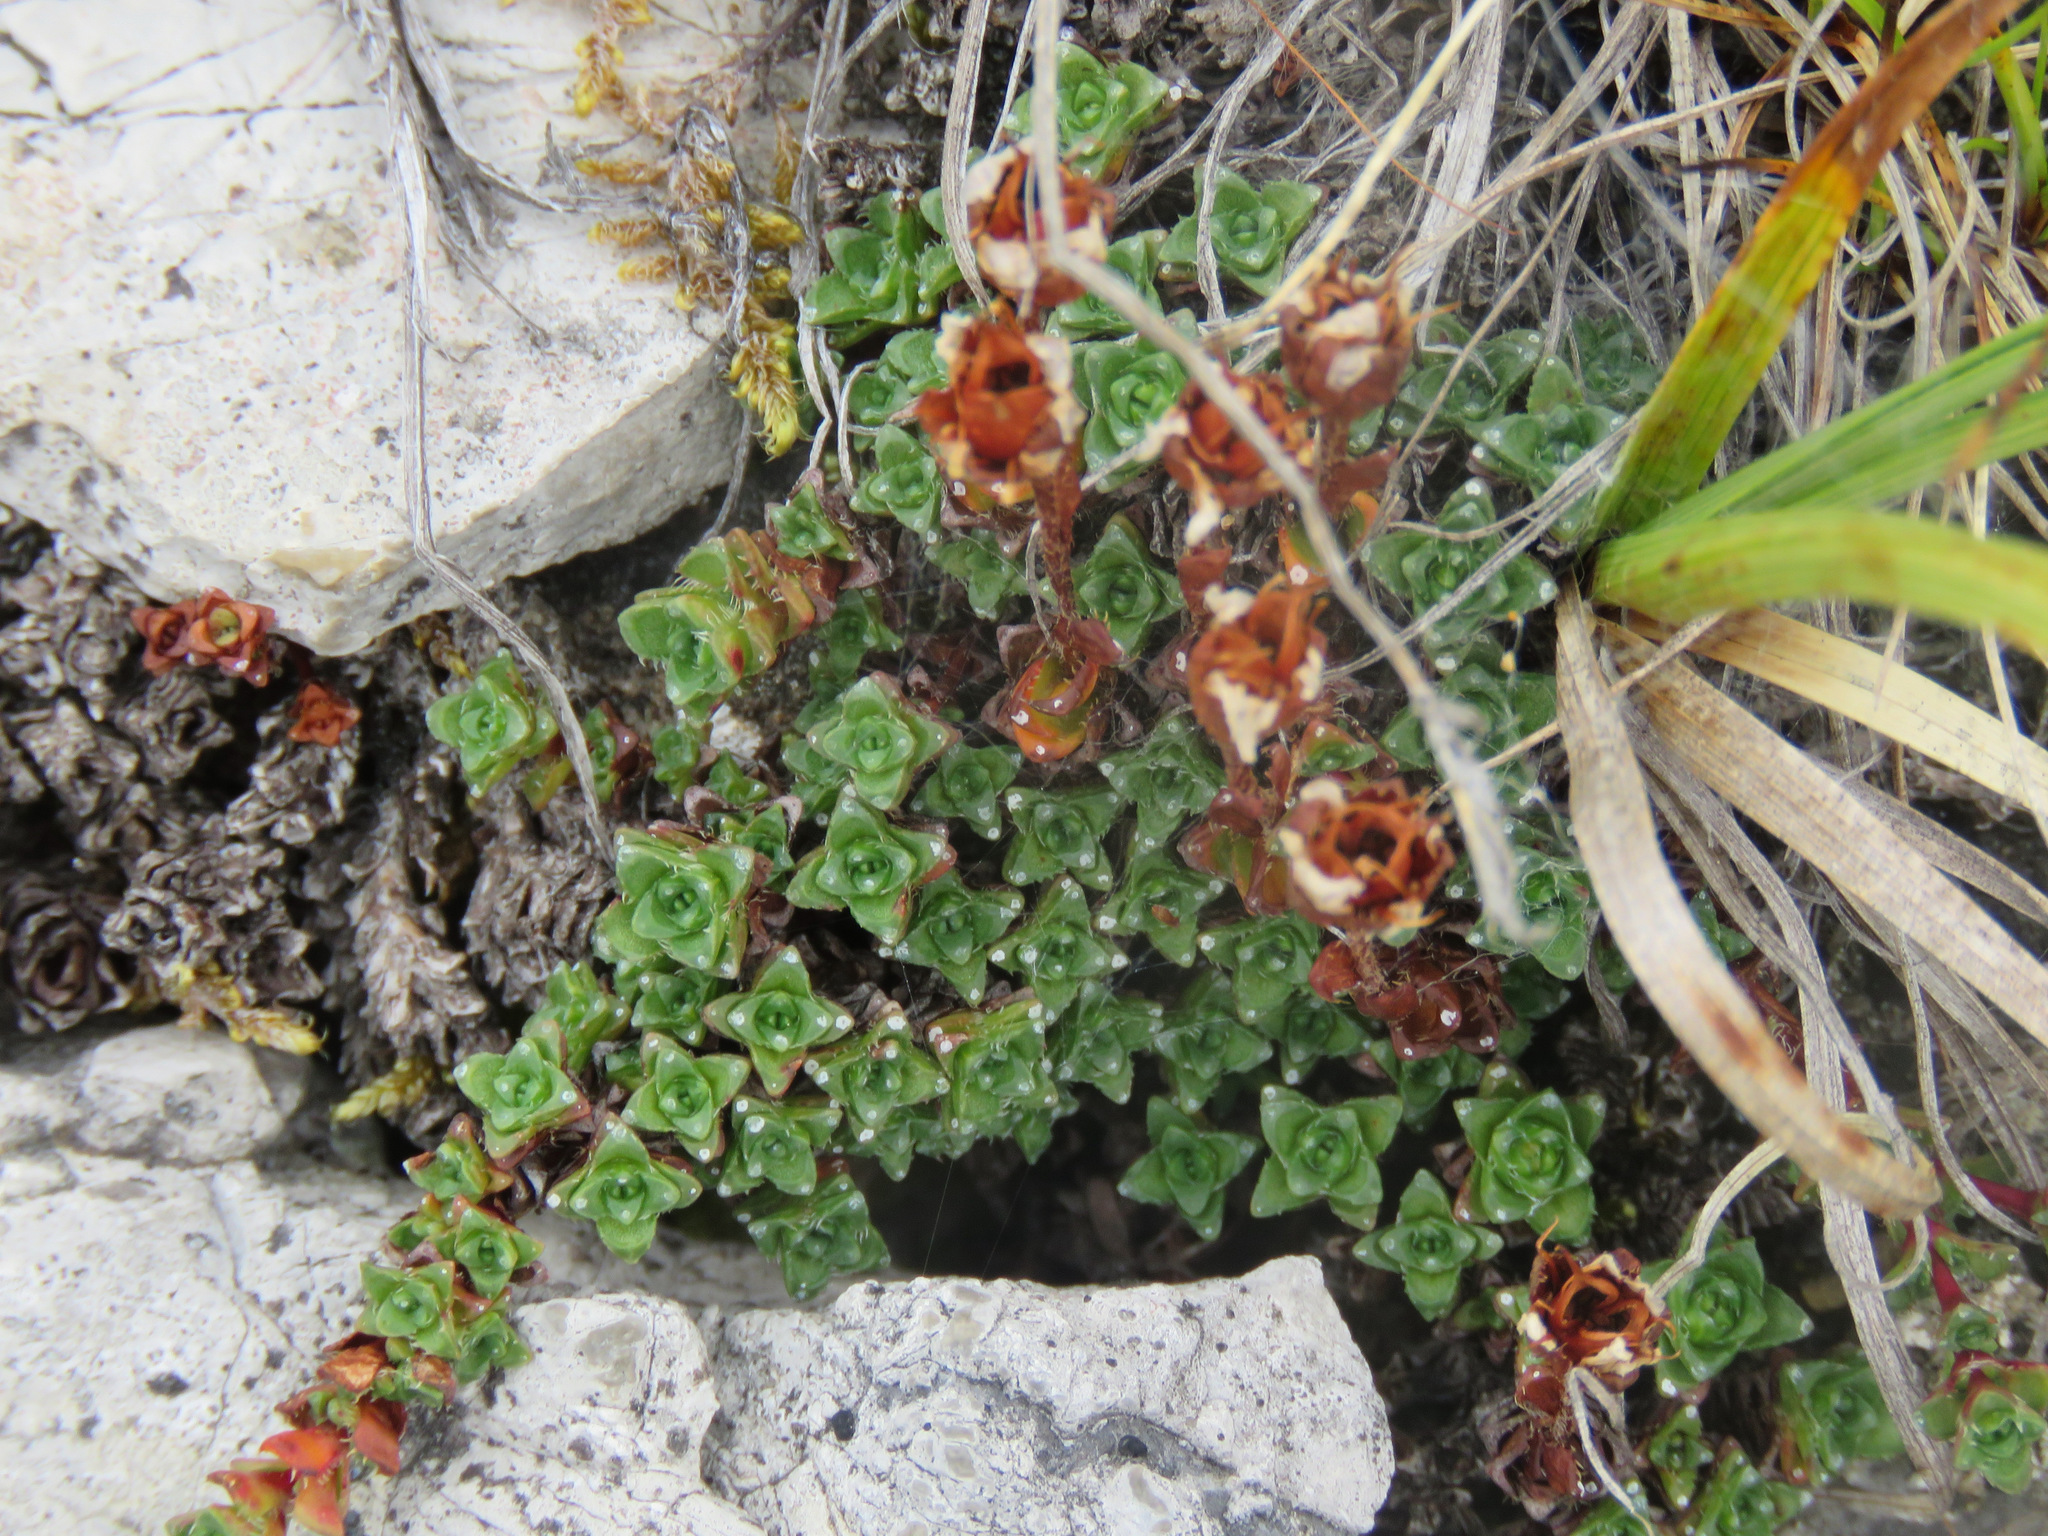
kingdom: Plantae
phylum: Tracheophyta
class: Magnoliopsida
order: Saxifragales
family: Saxifragaceae
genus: Saxifraga
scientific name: Saxifraga oppositifolia
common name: Purple saxifrage
